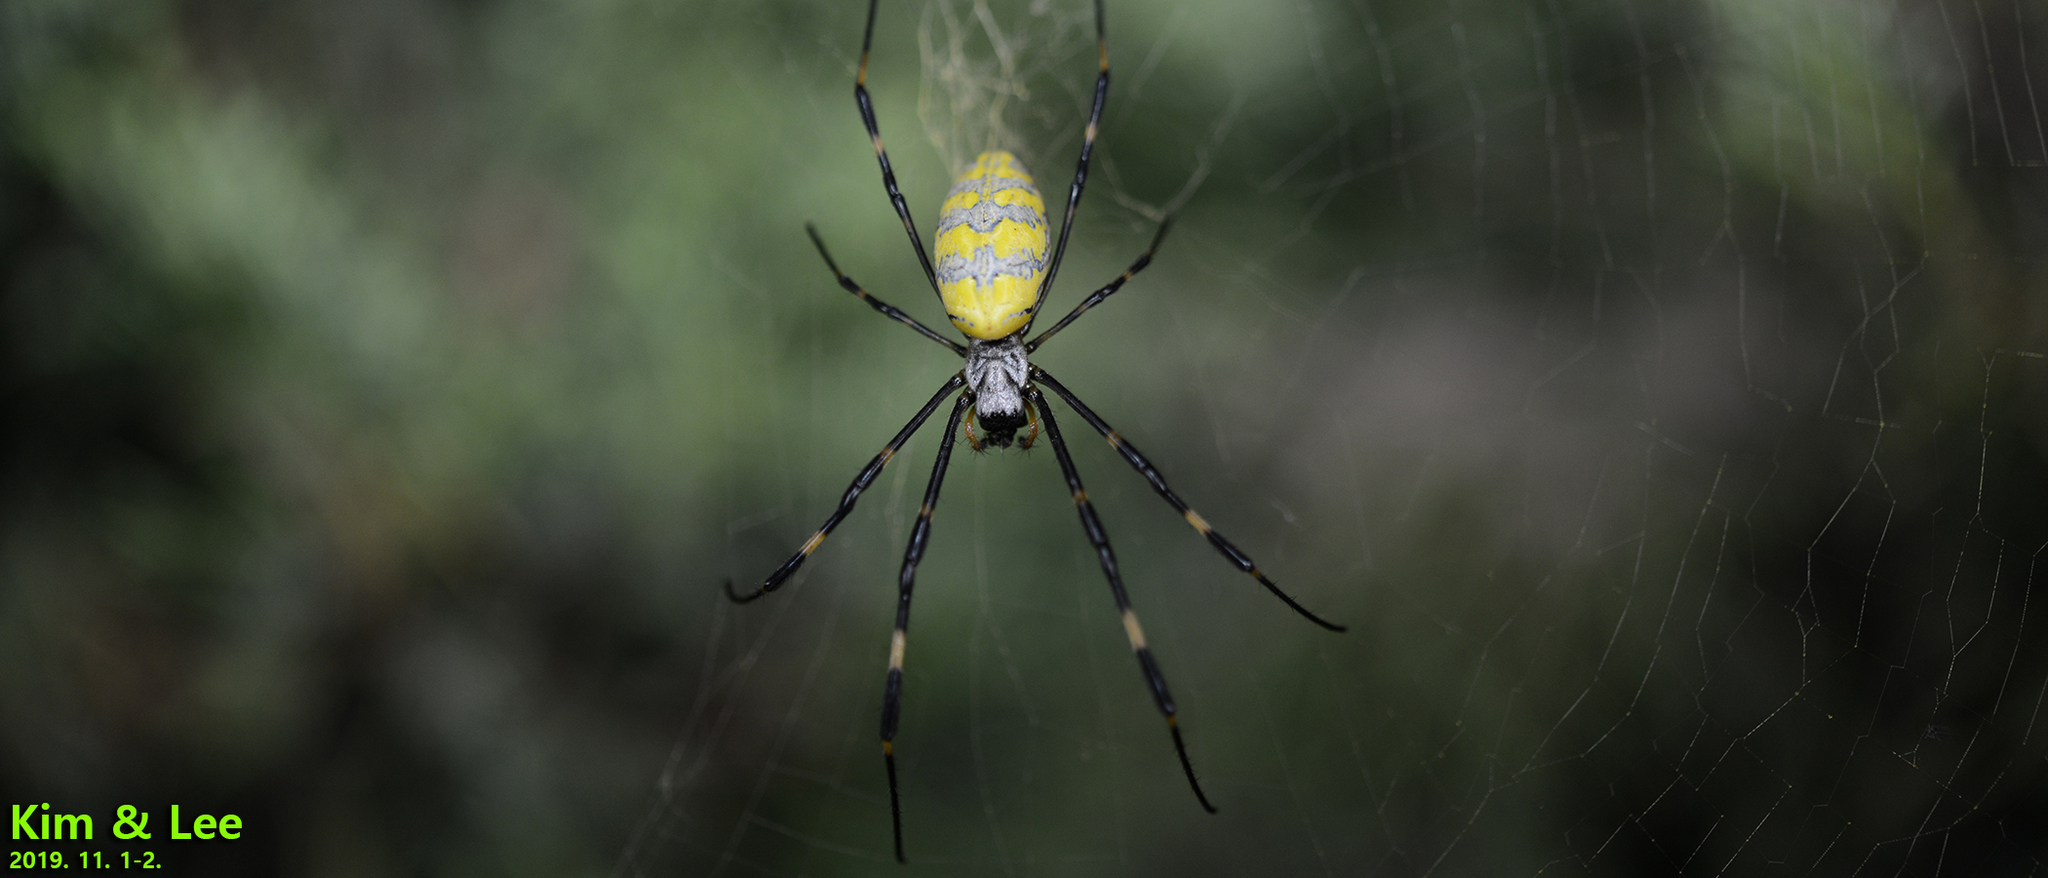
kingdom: Animalia
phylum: Arthropoda
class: Arachnida
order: Araneae
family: Araneidae
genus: Trichonephila
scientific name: Trichonephila clavata
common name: Jorō spider
